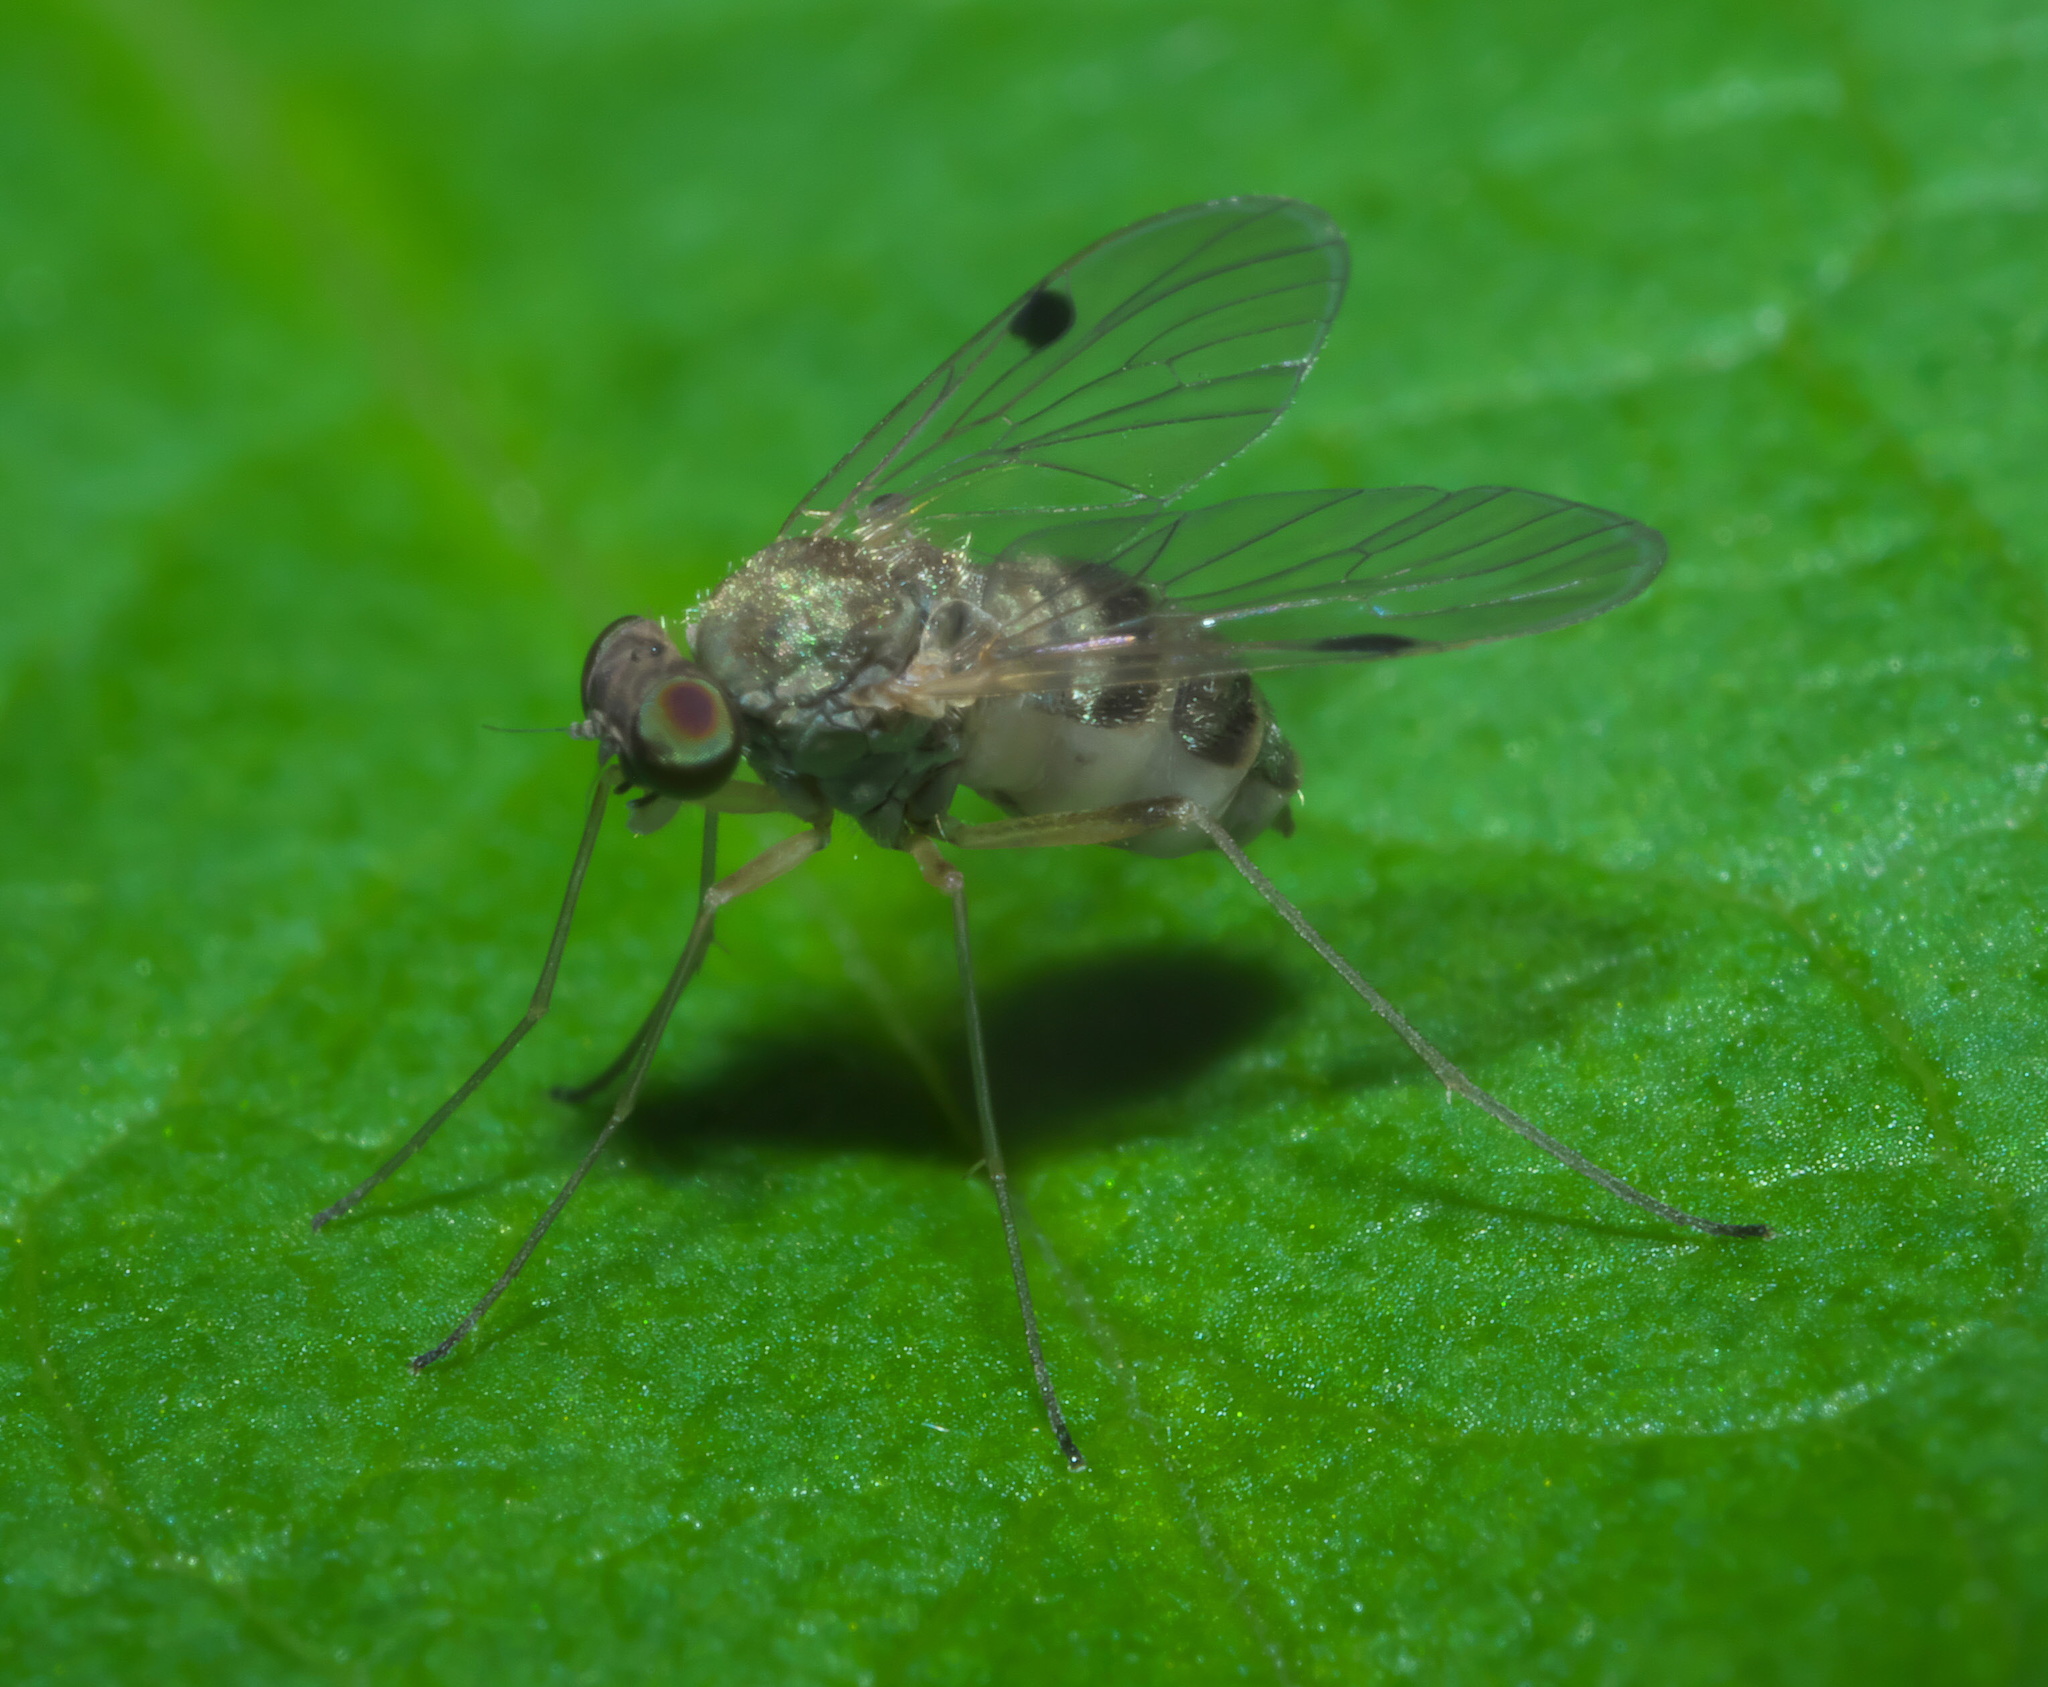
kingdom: Animalia
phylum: Arthropoda
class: Insecta
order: Diptera
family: Rhagionidae
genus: Chrysopilus
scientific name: Chrysopilus modestus
